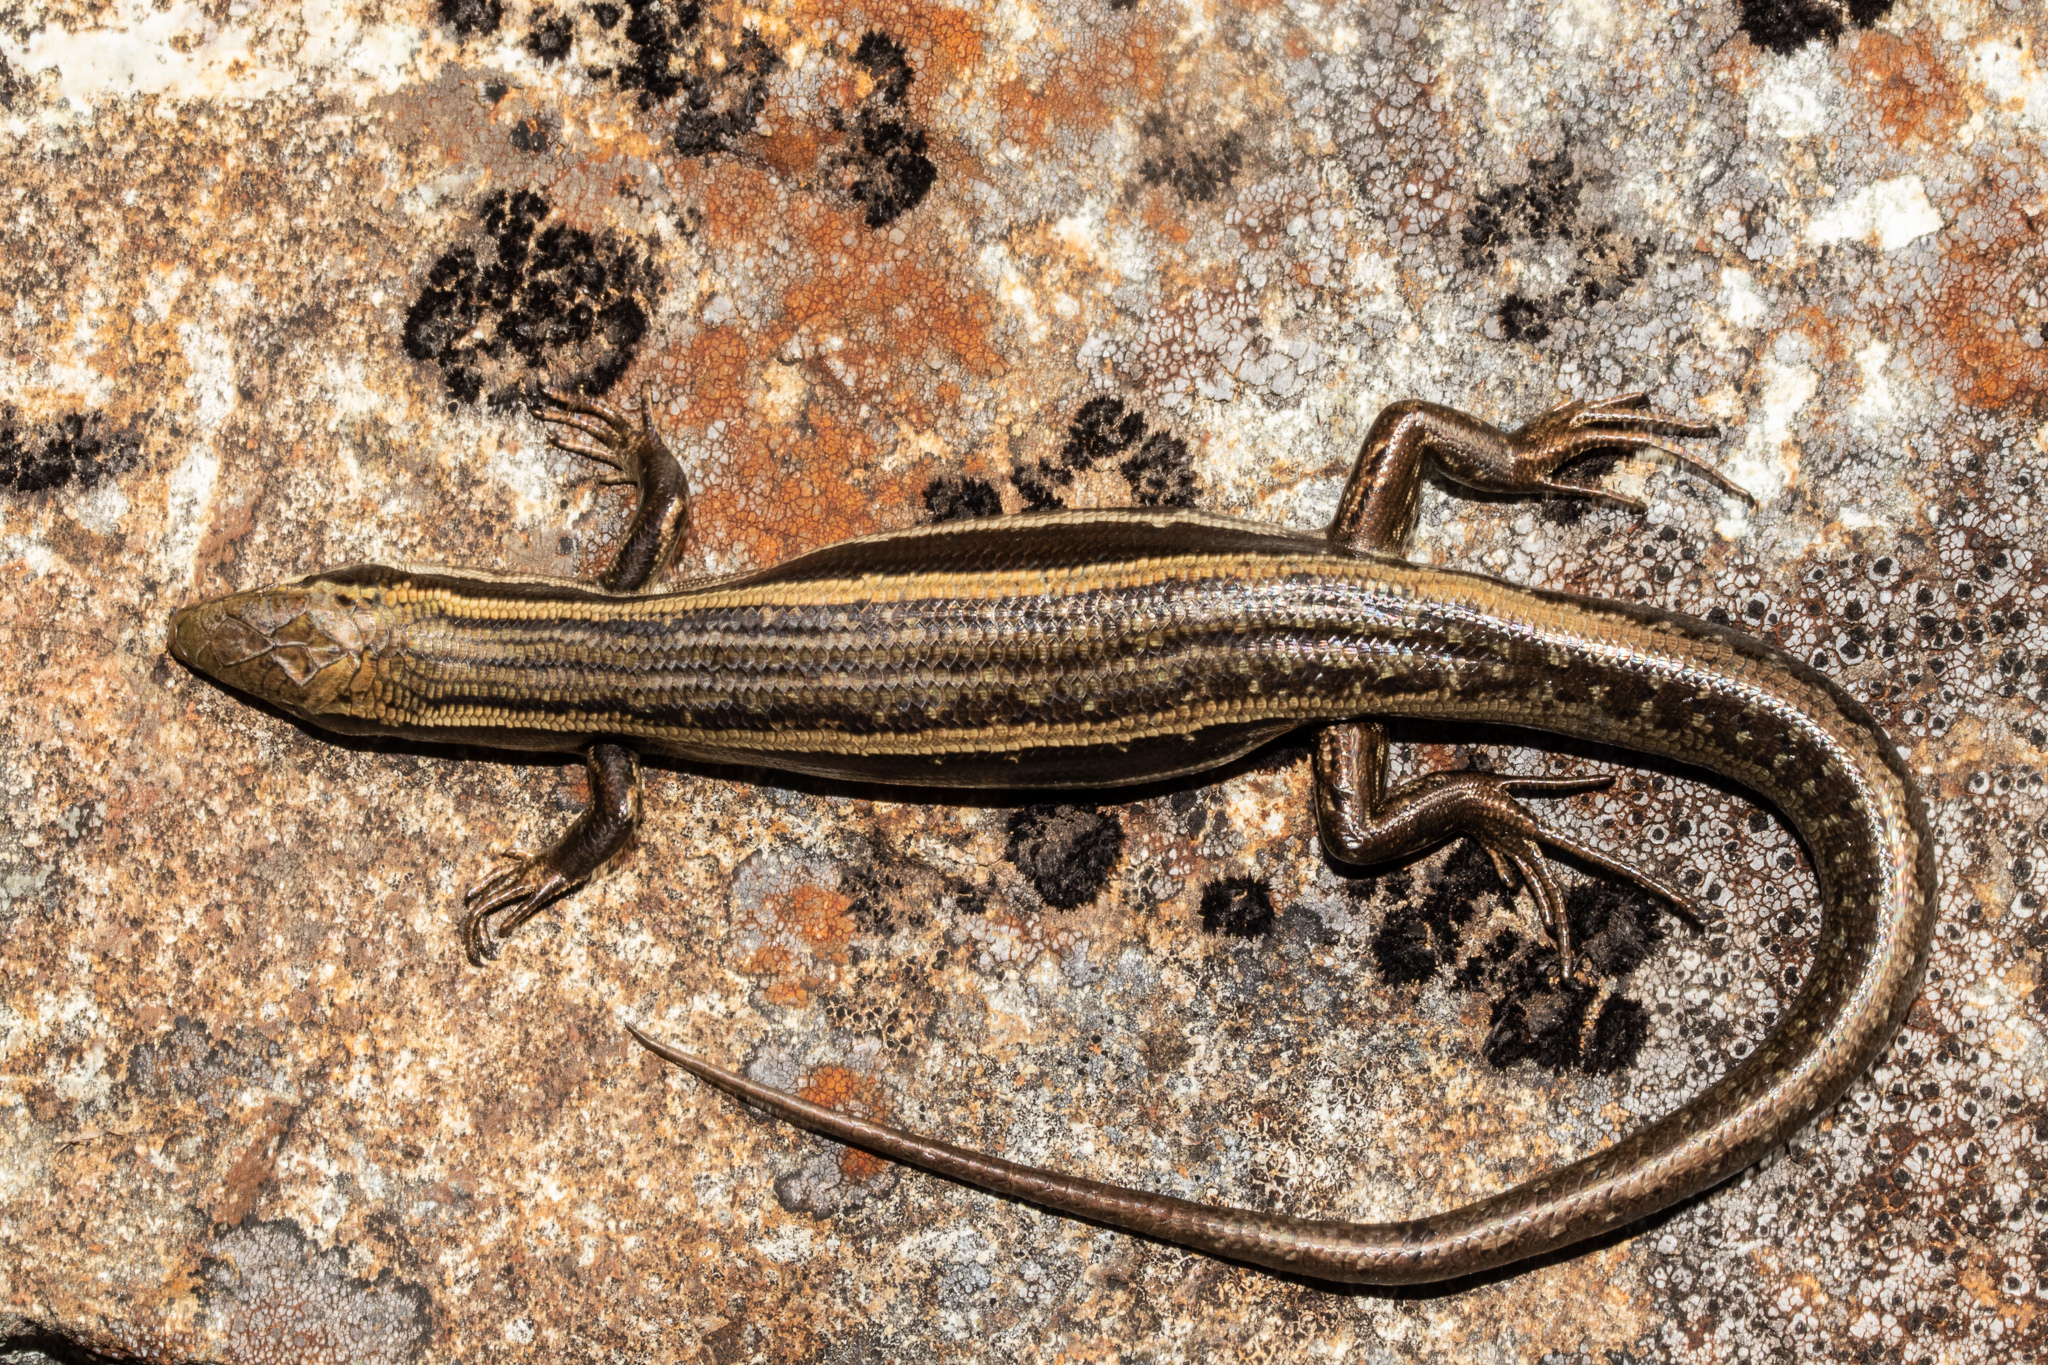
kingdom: Animalia
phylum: Chordata
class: Squamata
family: Scincidae
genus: Oligosoma
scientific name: Oligosoma kahurangi
